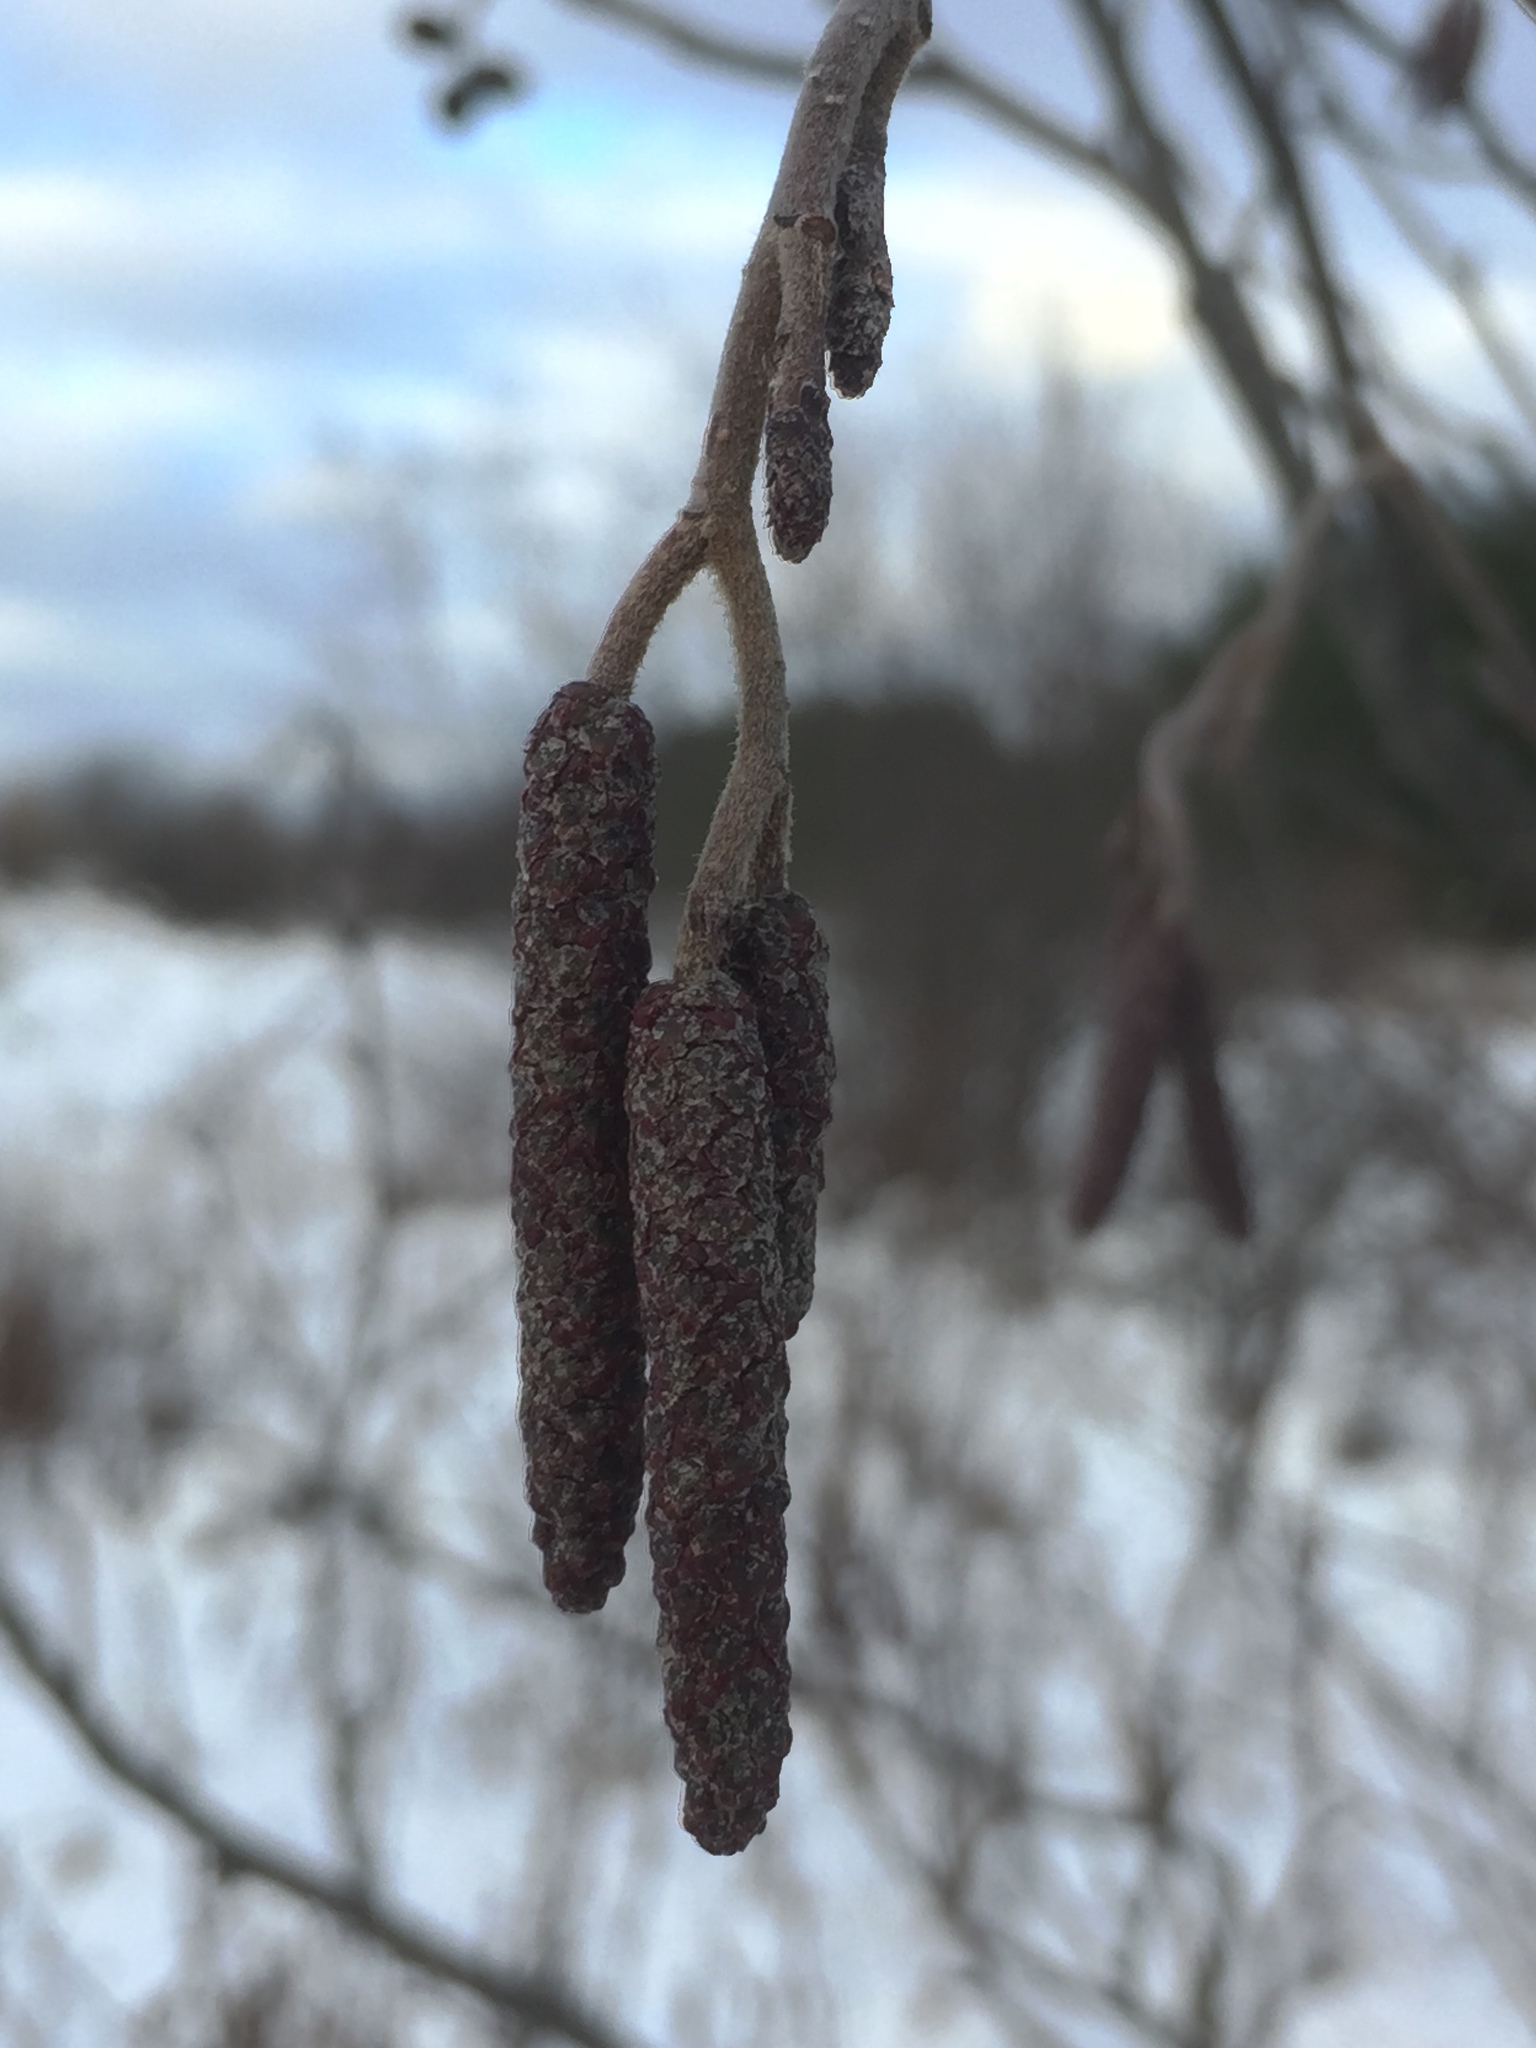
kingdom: Plantae
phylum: Tracheophyta
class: Magnoliopsida
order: Fagales
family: Betulaceae
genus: Alnus
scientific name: Alnus incana
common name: Grey alder
